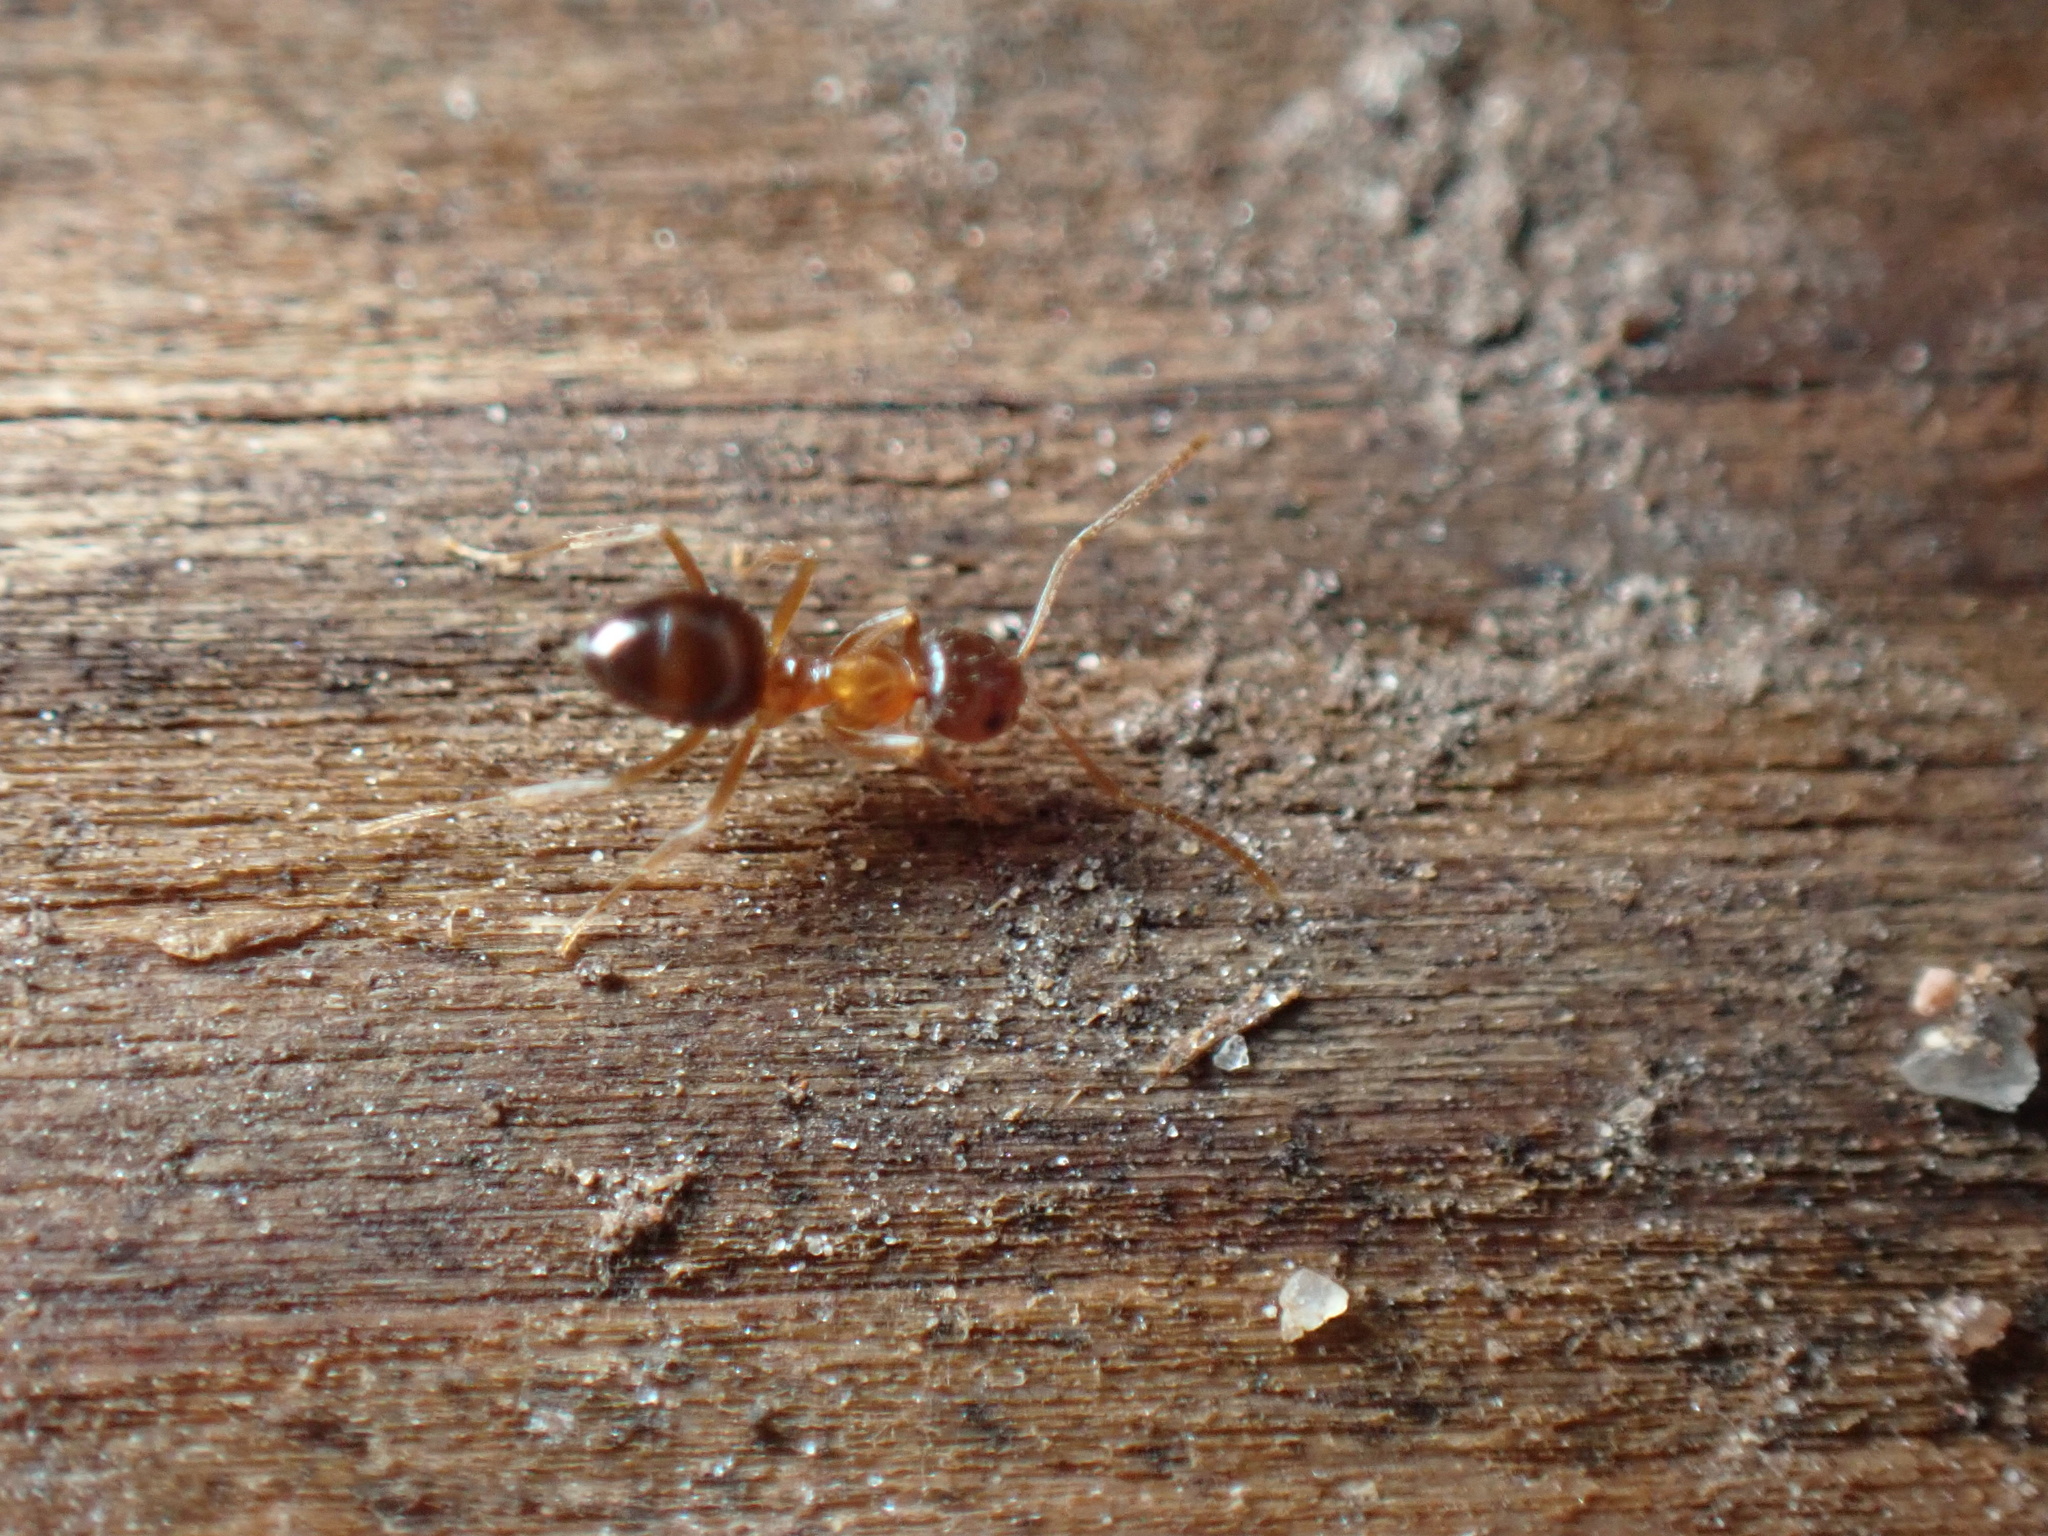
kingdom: Animalia
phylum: Arthropoda
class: Insecta
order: Hymenoptera
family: Formicidae
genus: Paratrechina
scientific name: Paratrechina flavipes
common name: Eastern asian formicine ant
